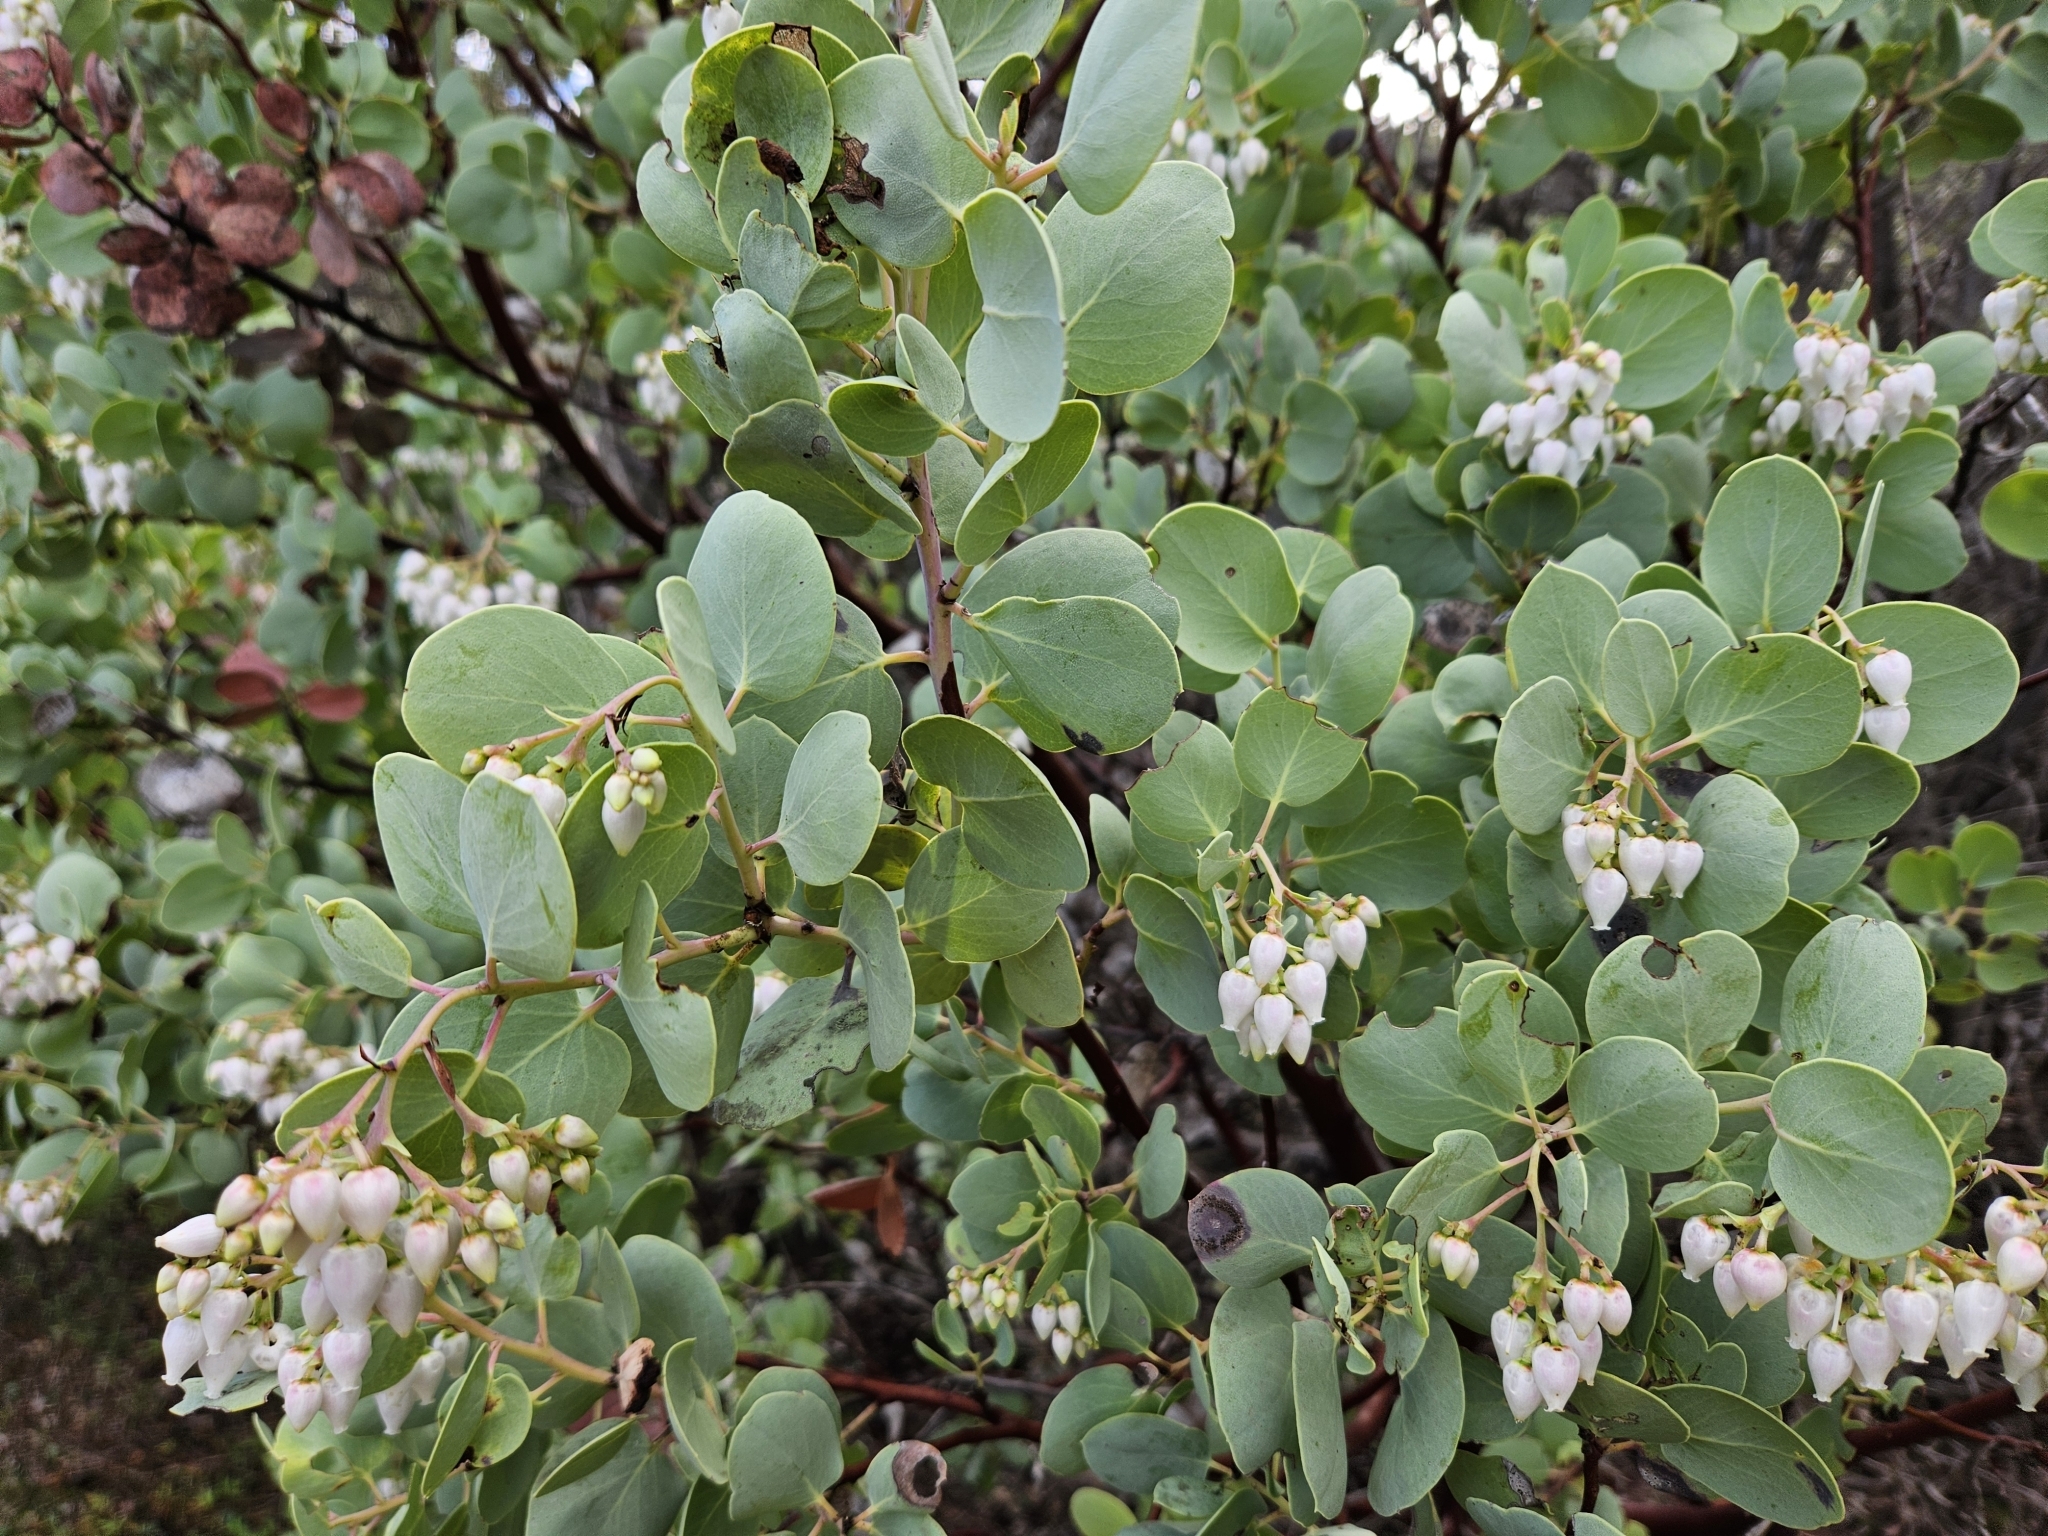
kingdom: Plantae
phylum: Tracheophyta
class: Magnoliopsida
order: Ericales
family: Ericaceae
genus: Arctostaphylos
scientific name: Arctostaphylos glauca
